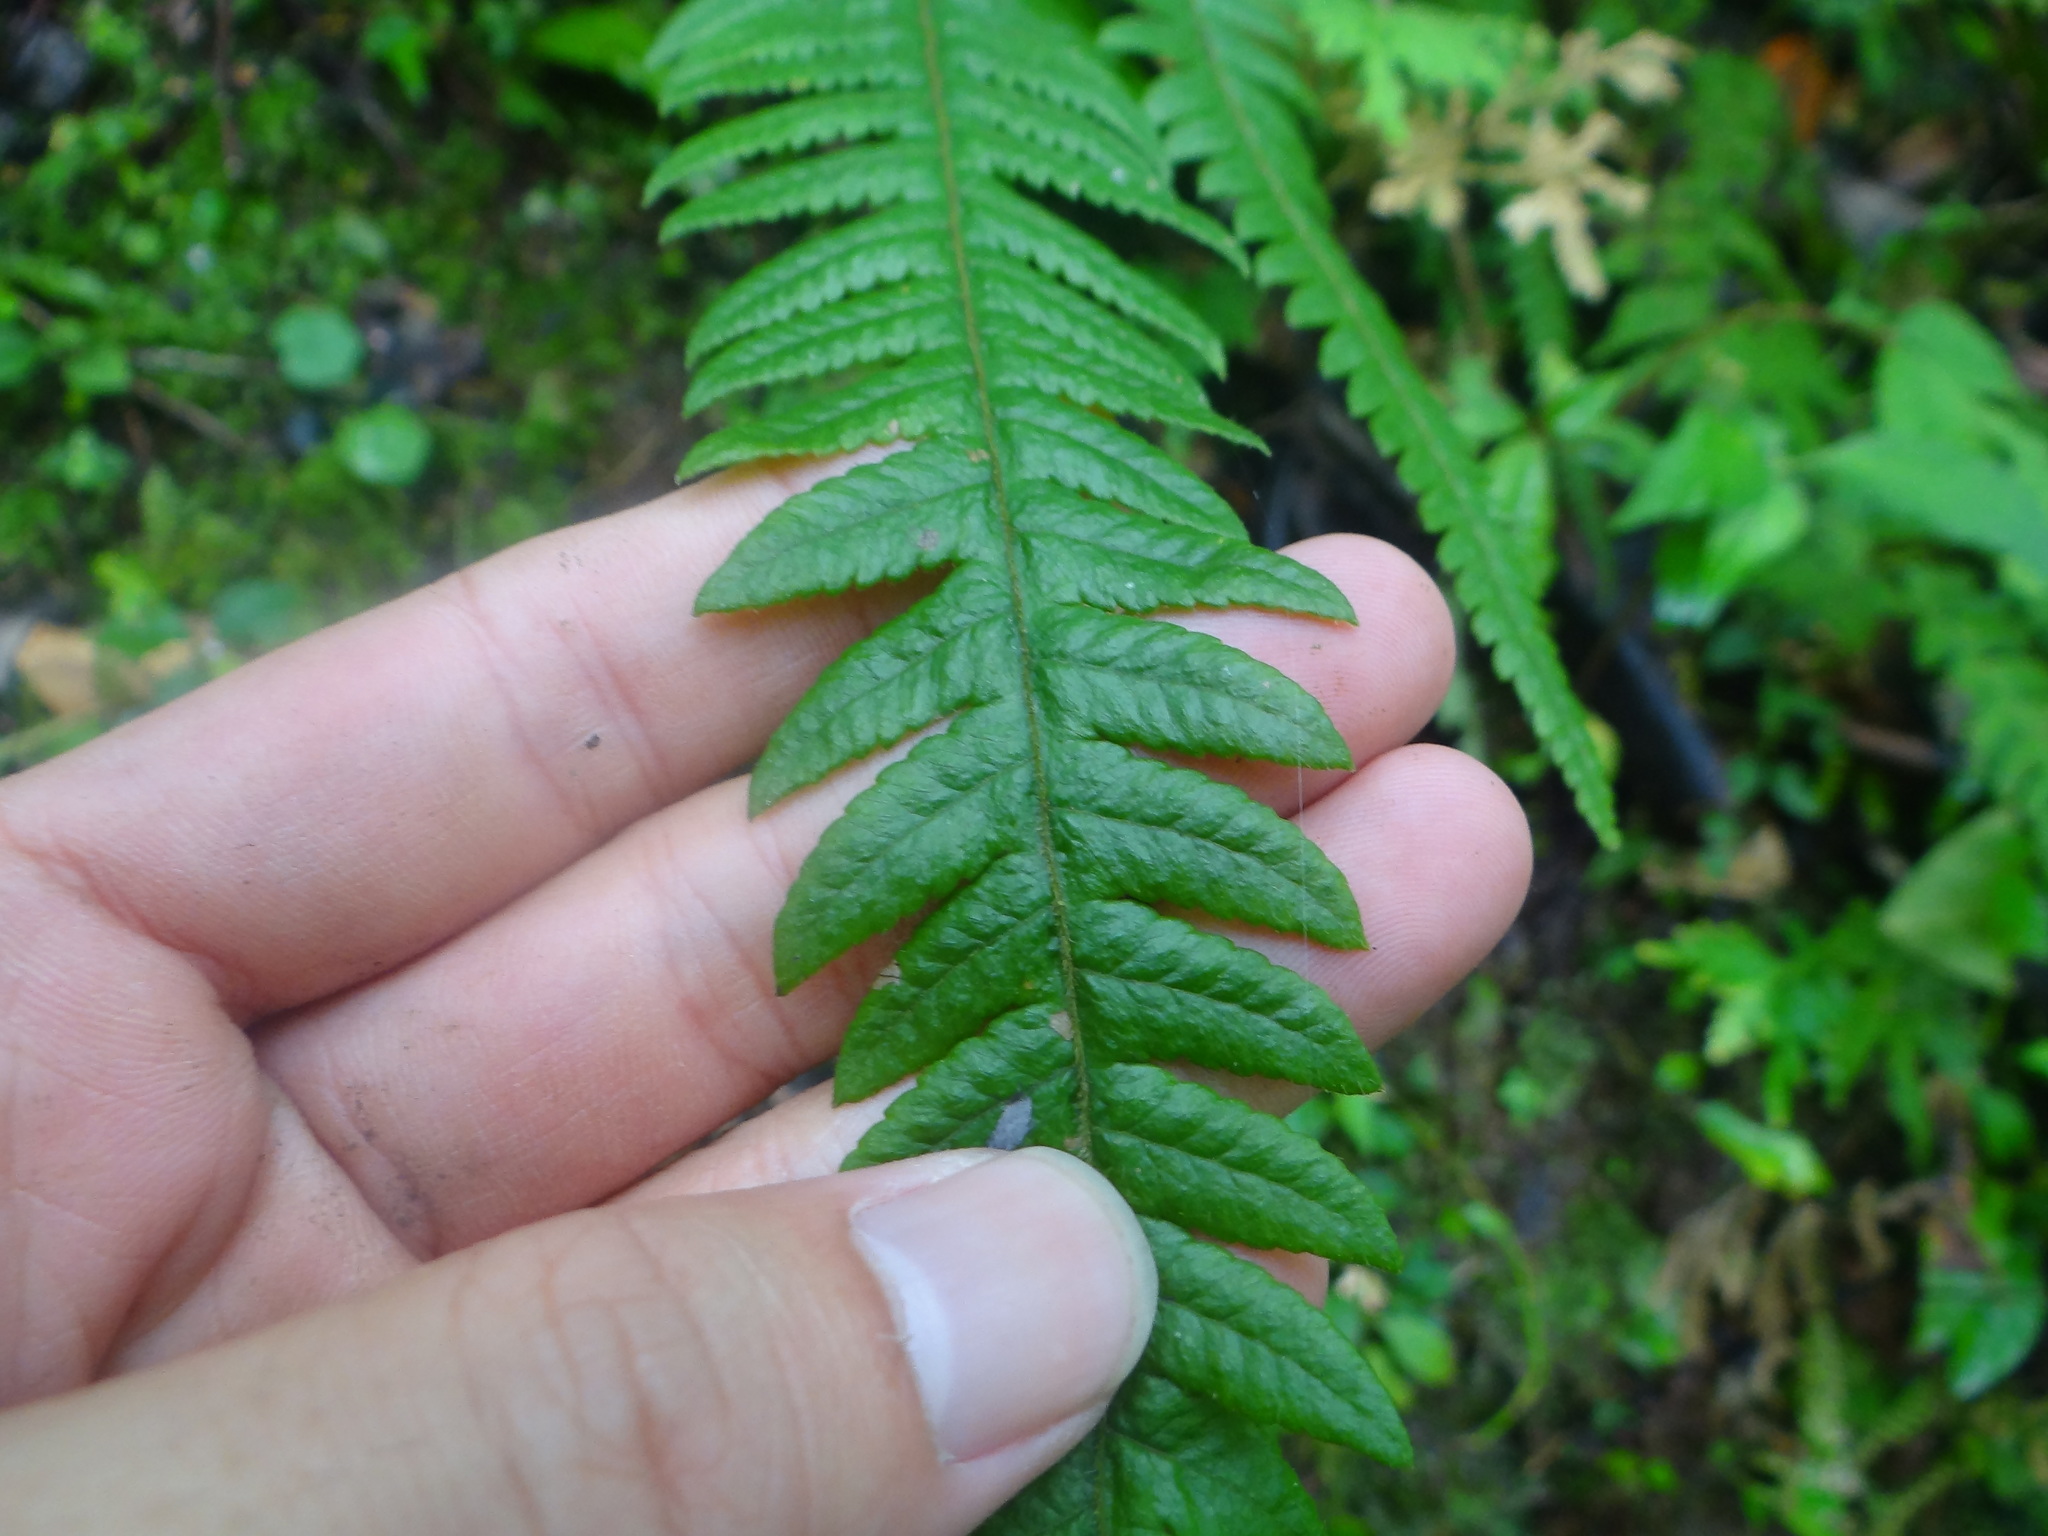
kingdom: Plantae
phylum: Tracheophyta
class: Polypodiopsida
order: Polypodiales
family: Thelypteridaceae
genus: Phegopteris
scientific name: Phegopteris decursive-pinnata
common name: Japanese beech fern
